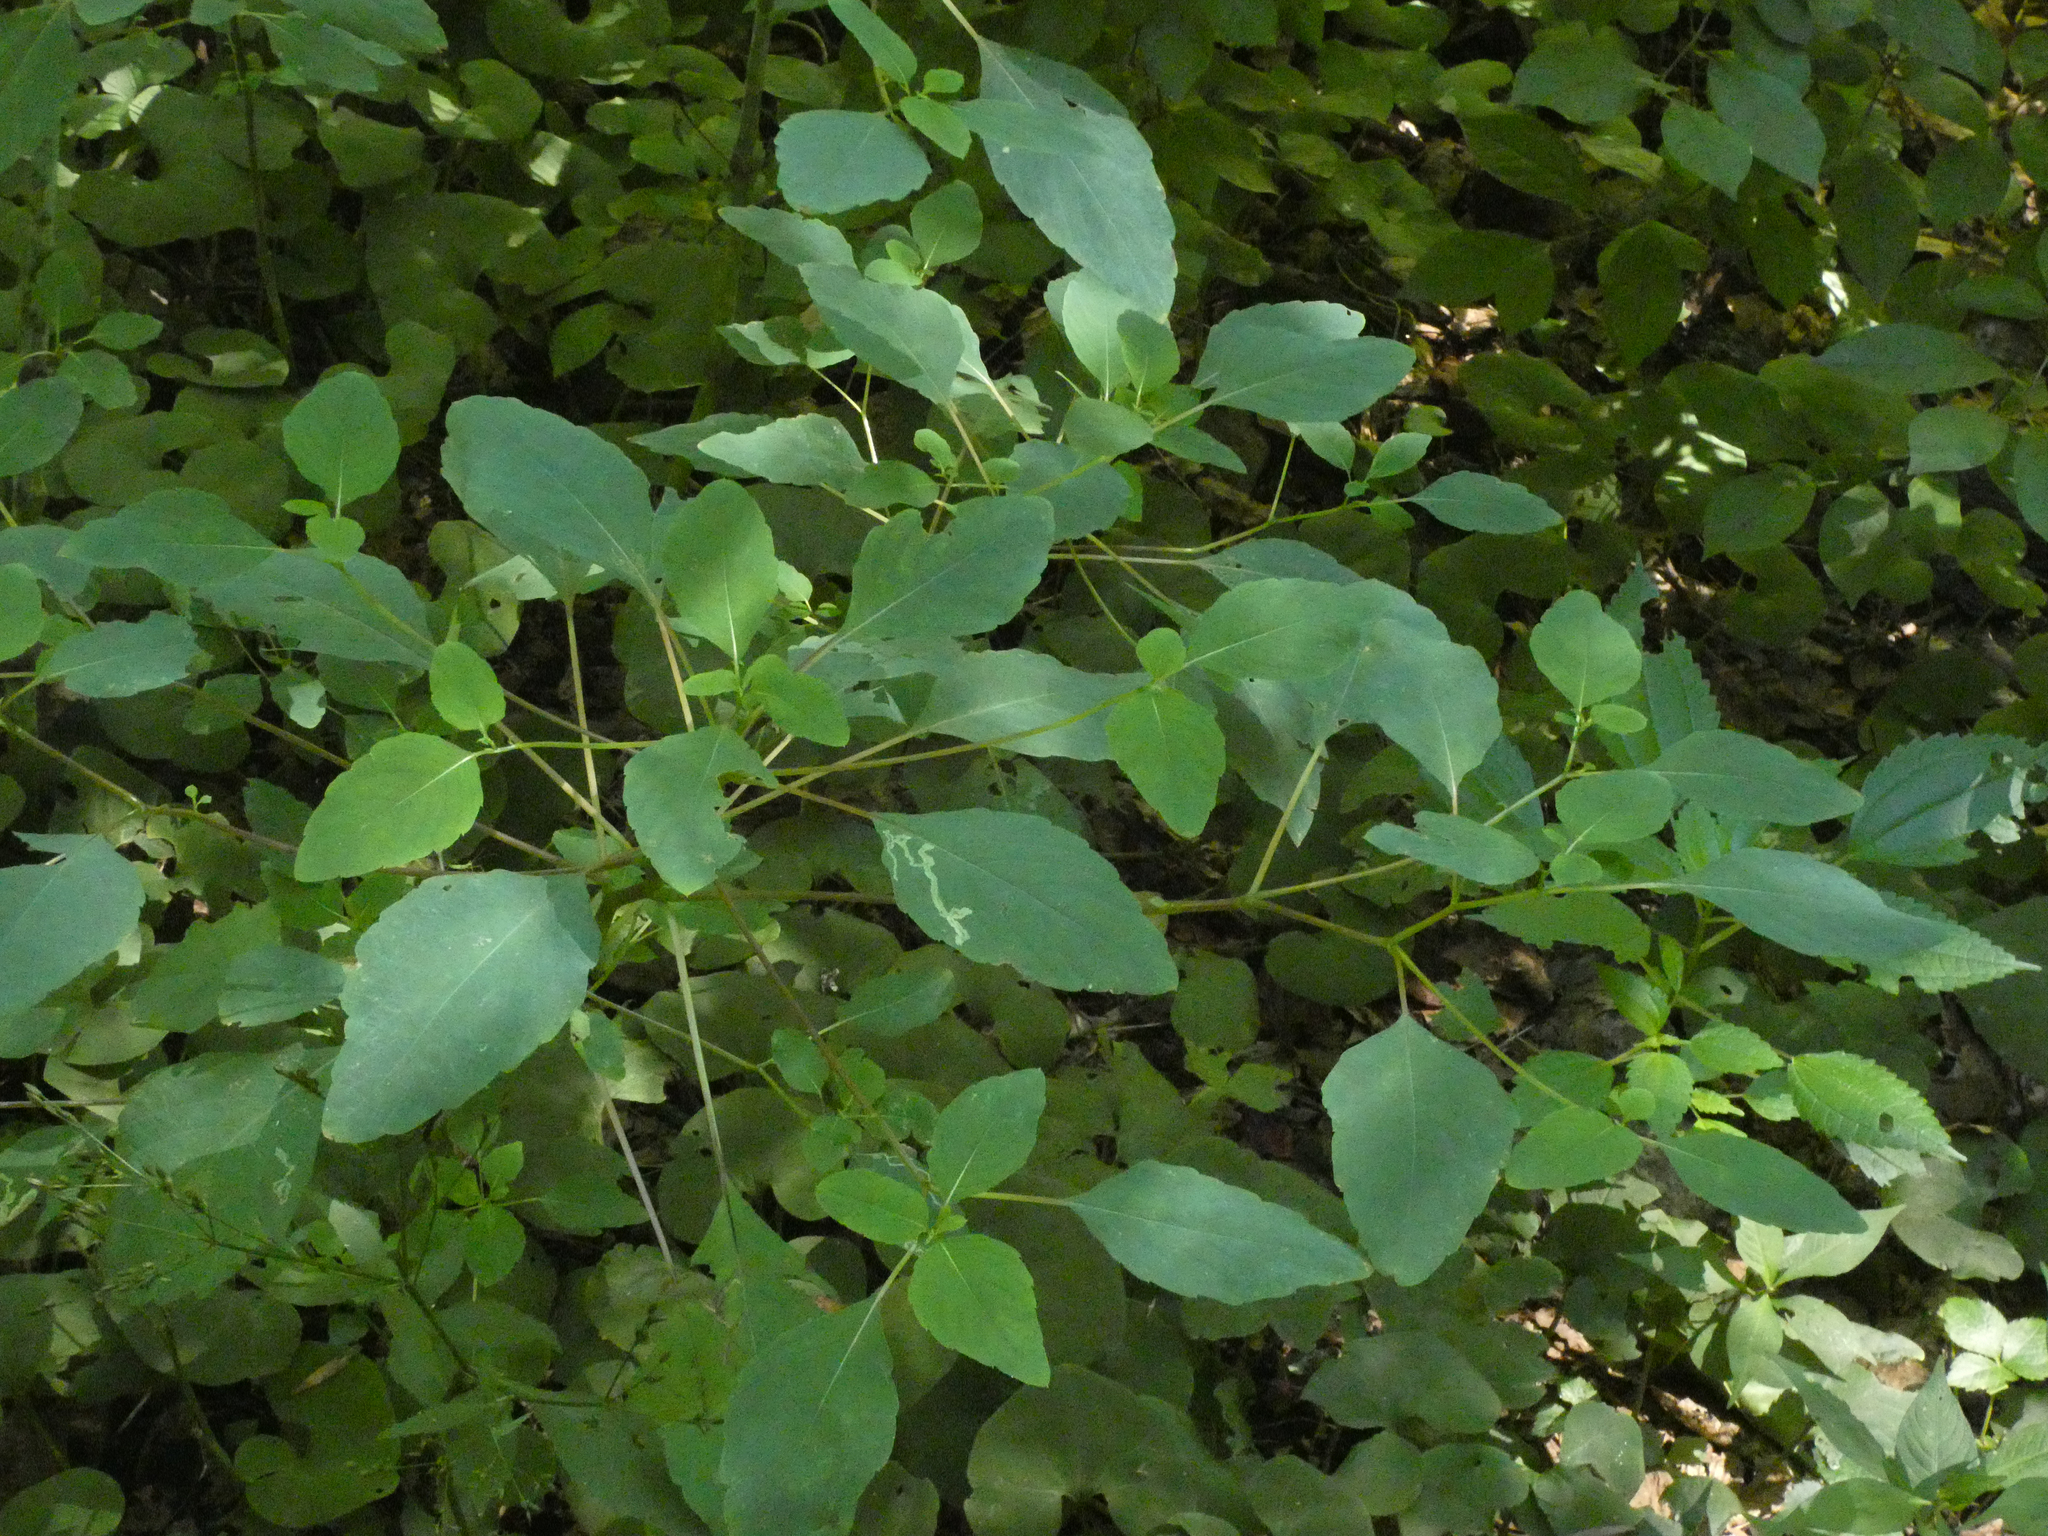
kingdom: Plantae
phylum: Tracheophyta
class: Magnoliopsida
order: Ericales
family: Balsaminaceae
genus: Impatiens
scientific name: Impatiens capensis
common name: Orange balsam
